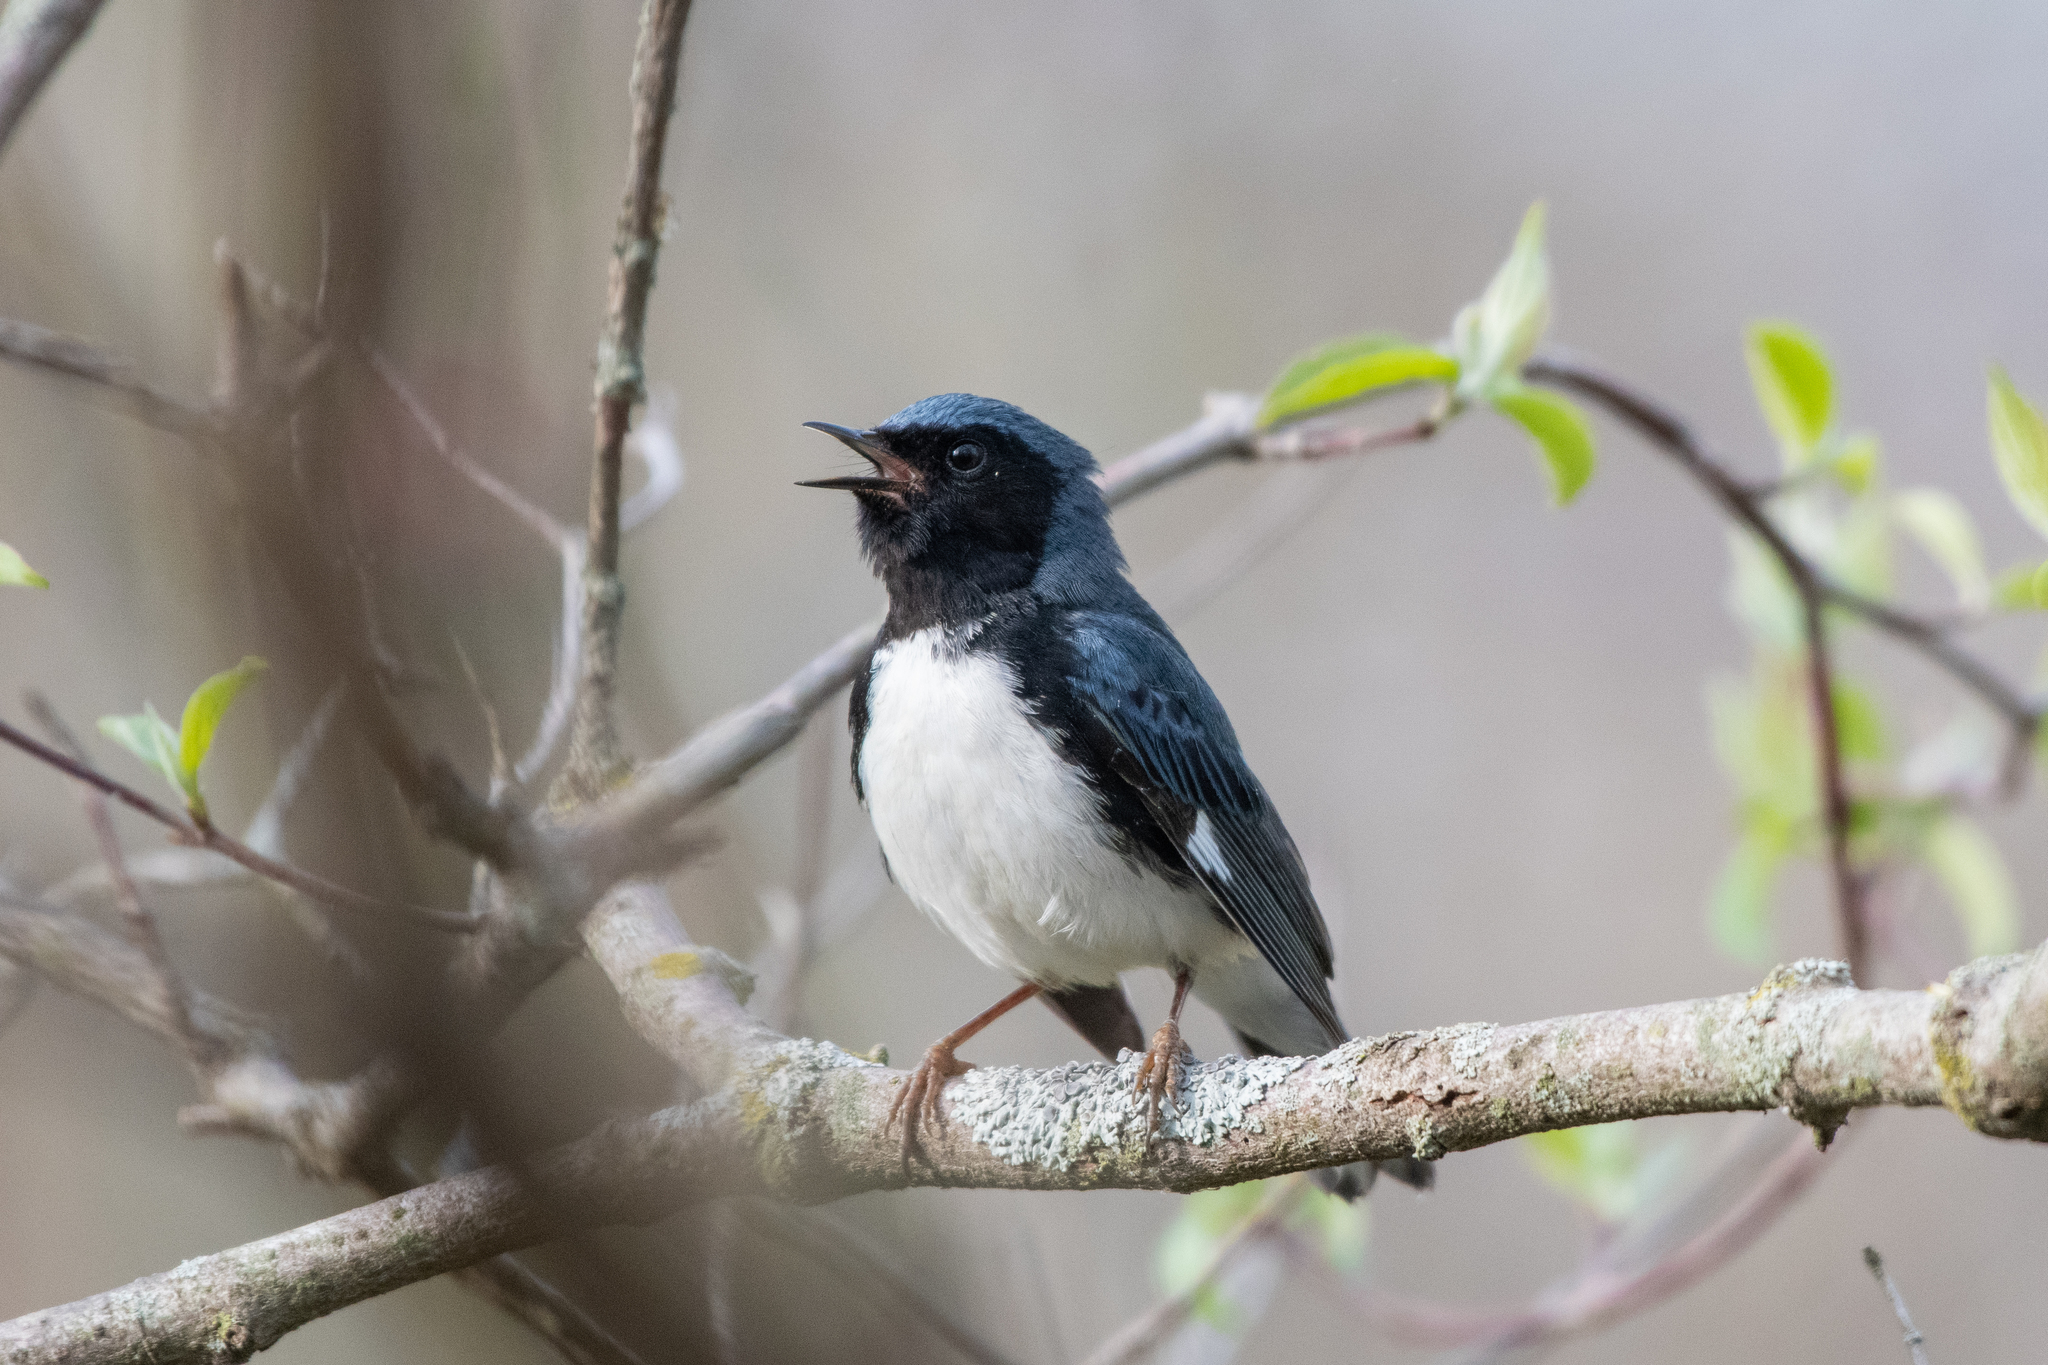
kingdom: Animalia
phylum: Chordata
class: Aves
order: Passeriformes
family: Parulidae
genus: Setophaga
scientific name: Setophaga caerulescens
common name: Black-throated blue warbler
